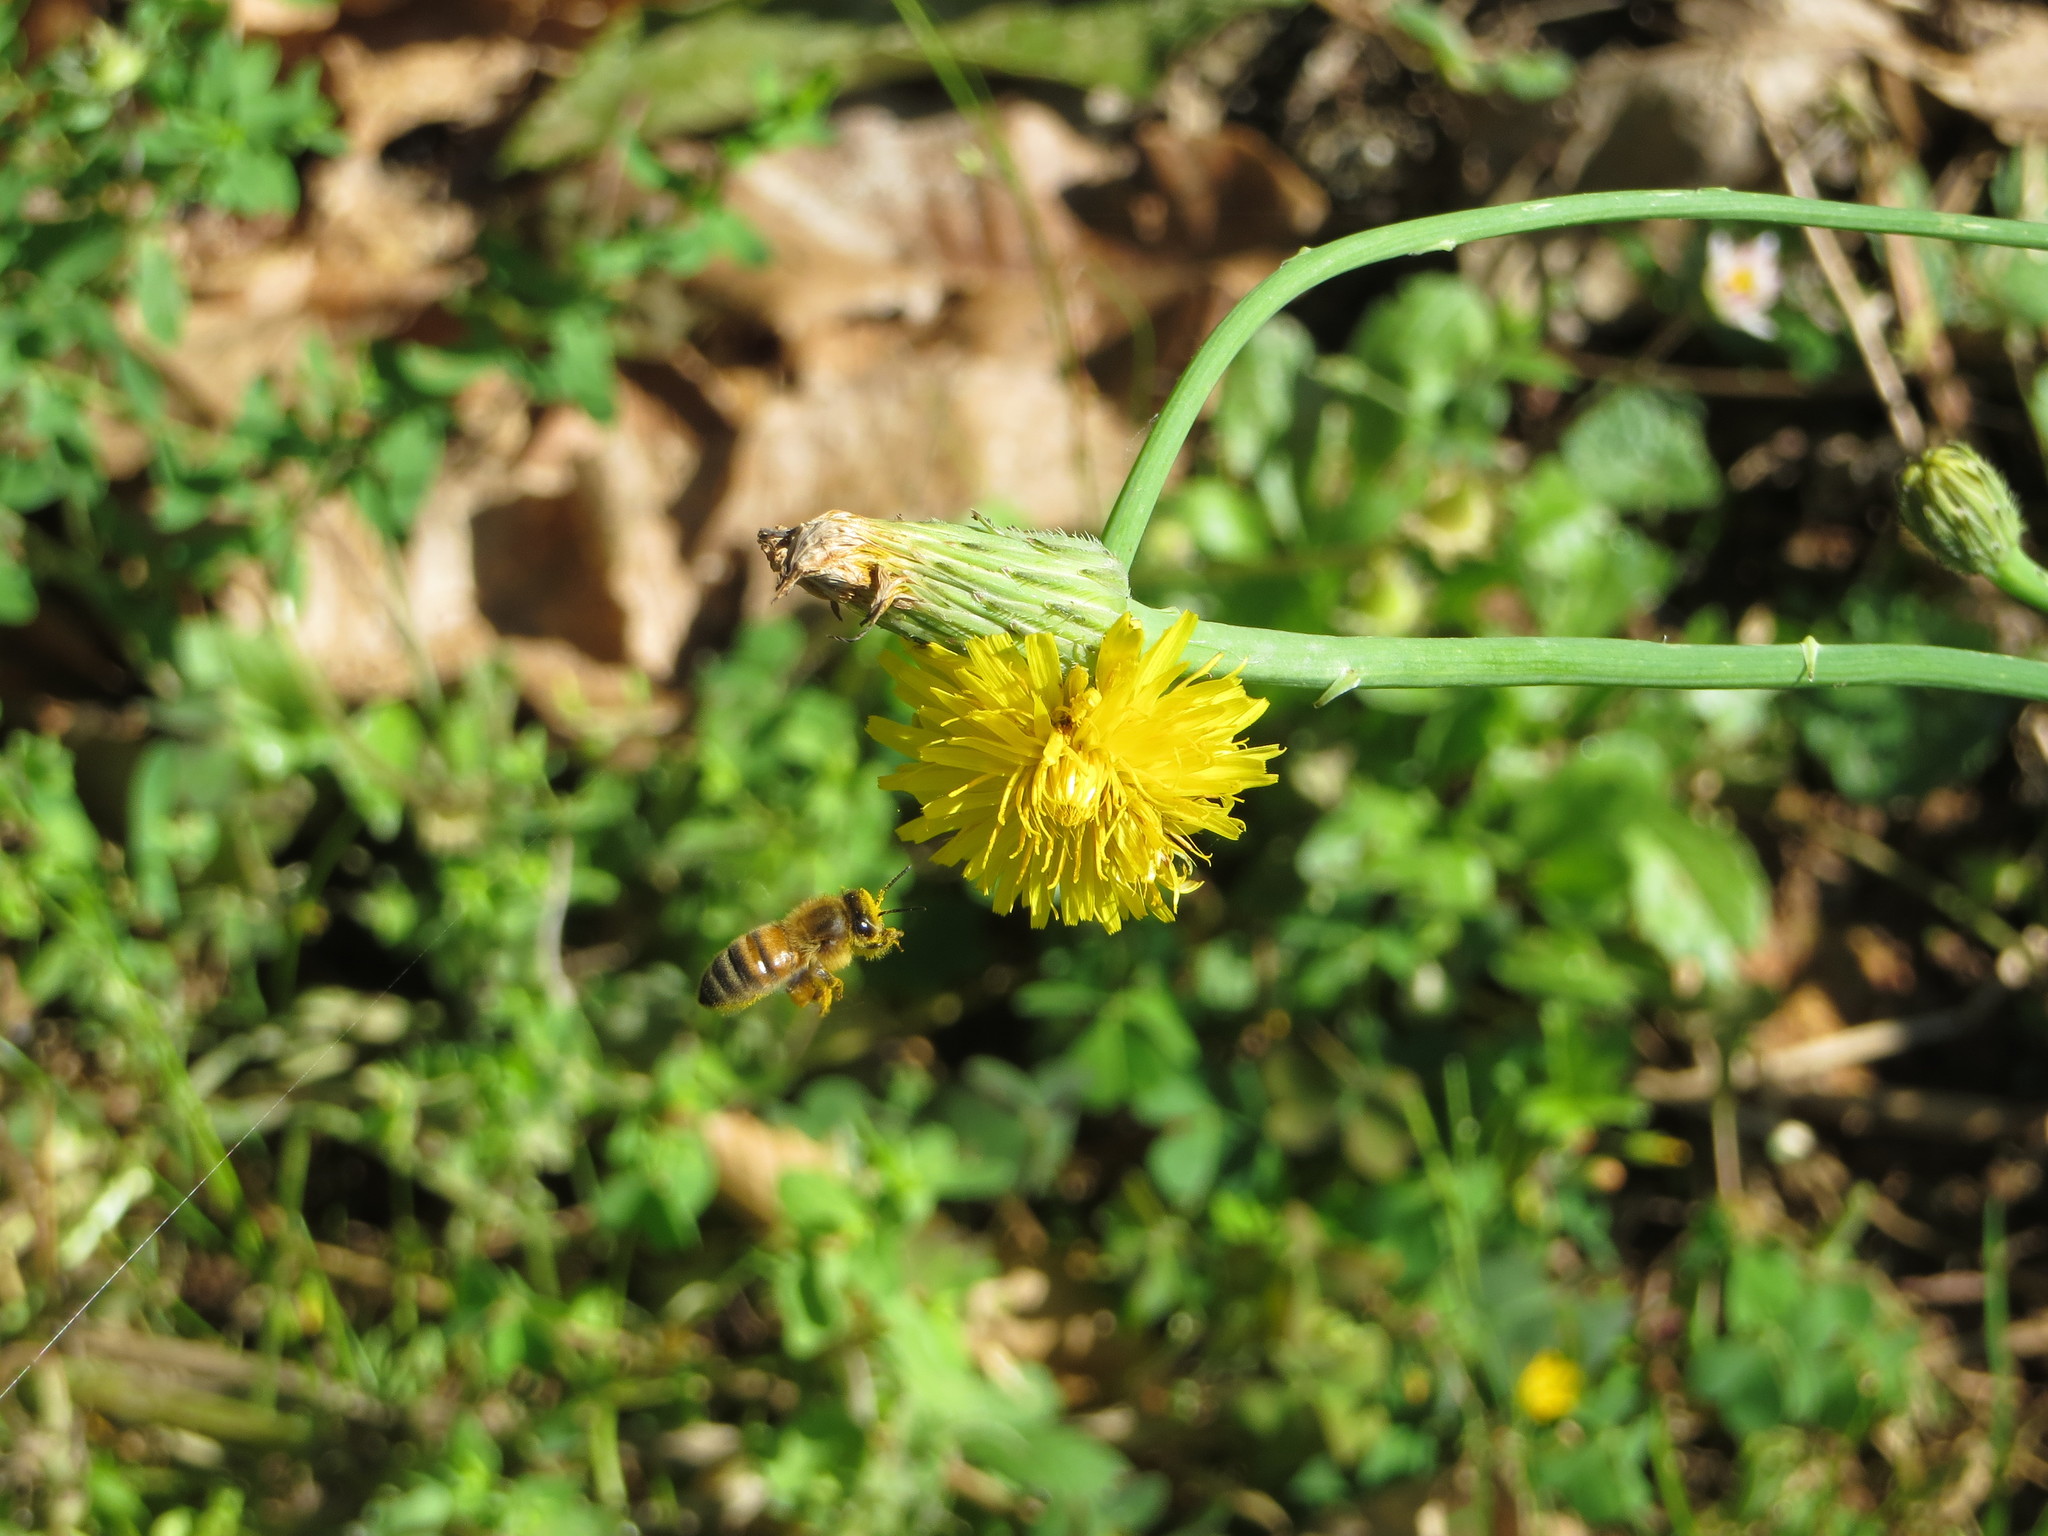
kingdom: Animalia
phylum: Arthropoda
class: Insecta
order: Hymenoptera
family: Apidae
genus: Apis
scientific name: Apis mellifera
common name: Honey bee
